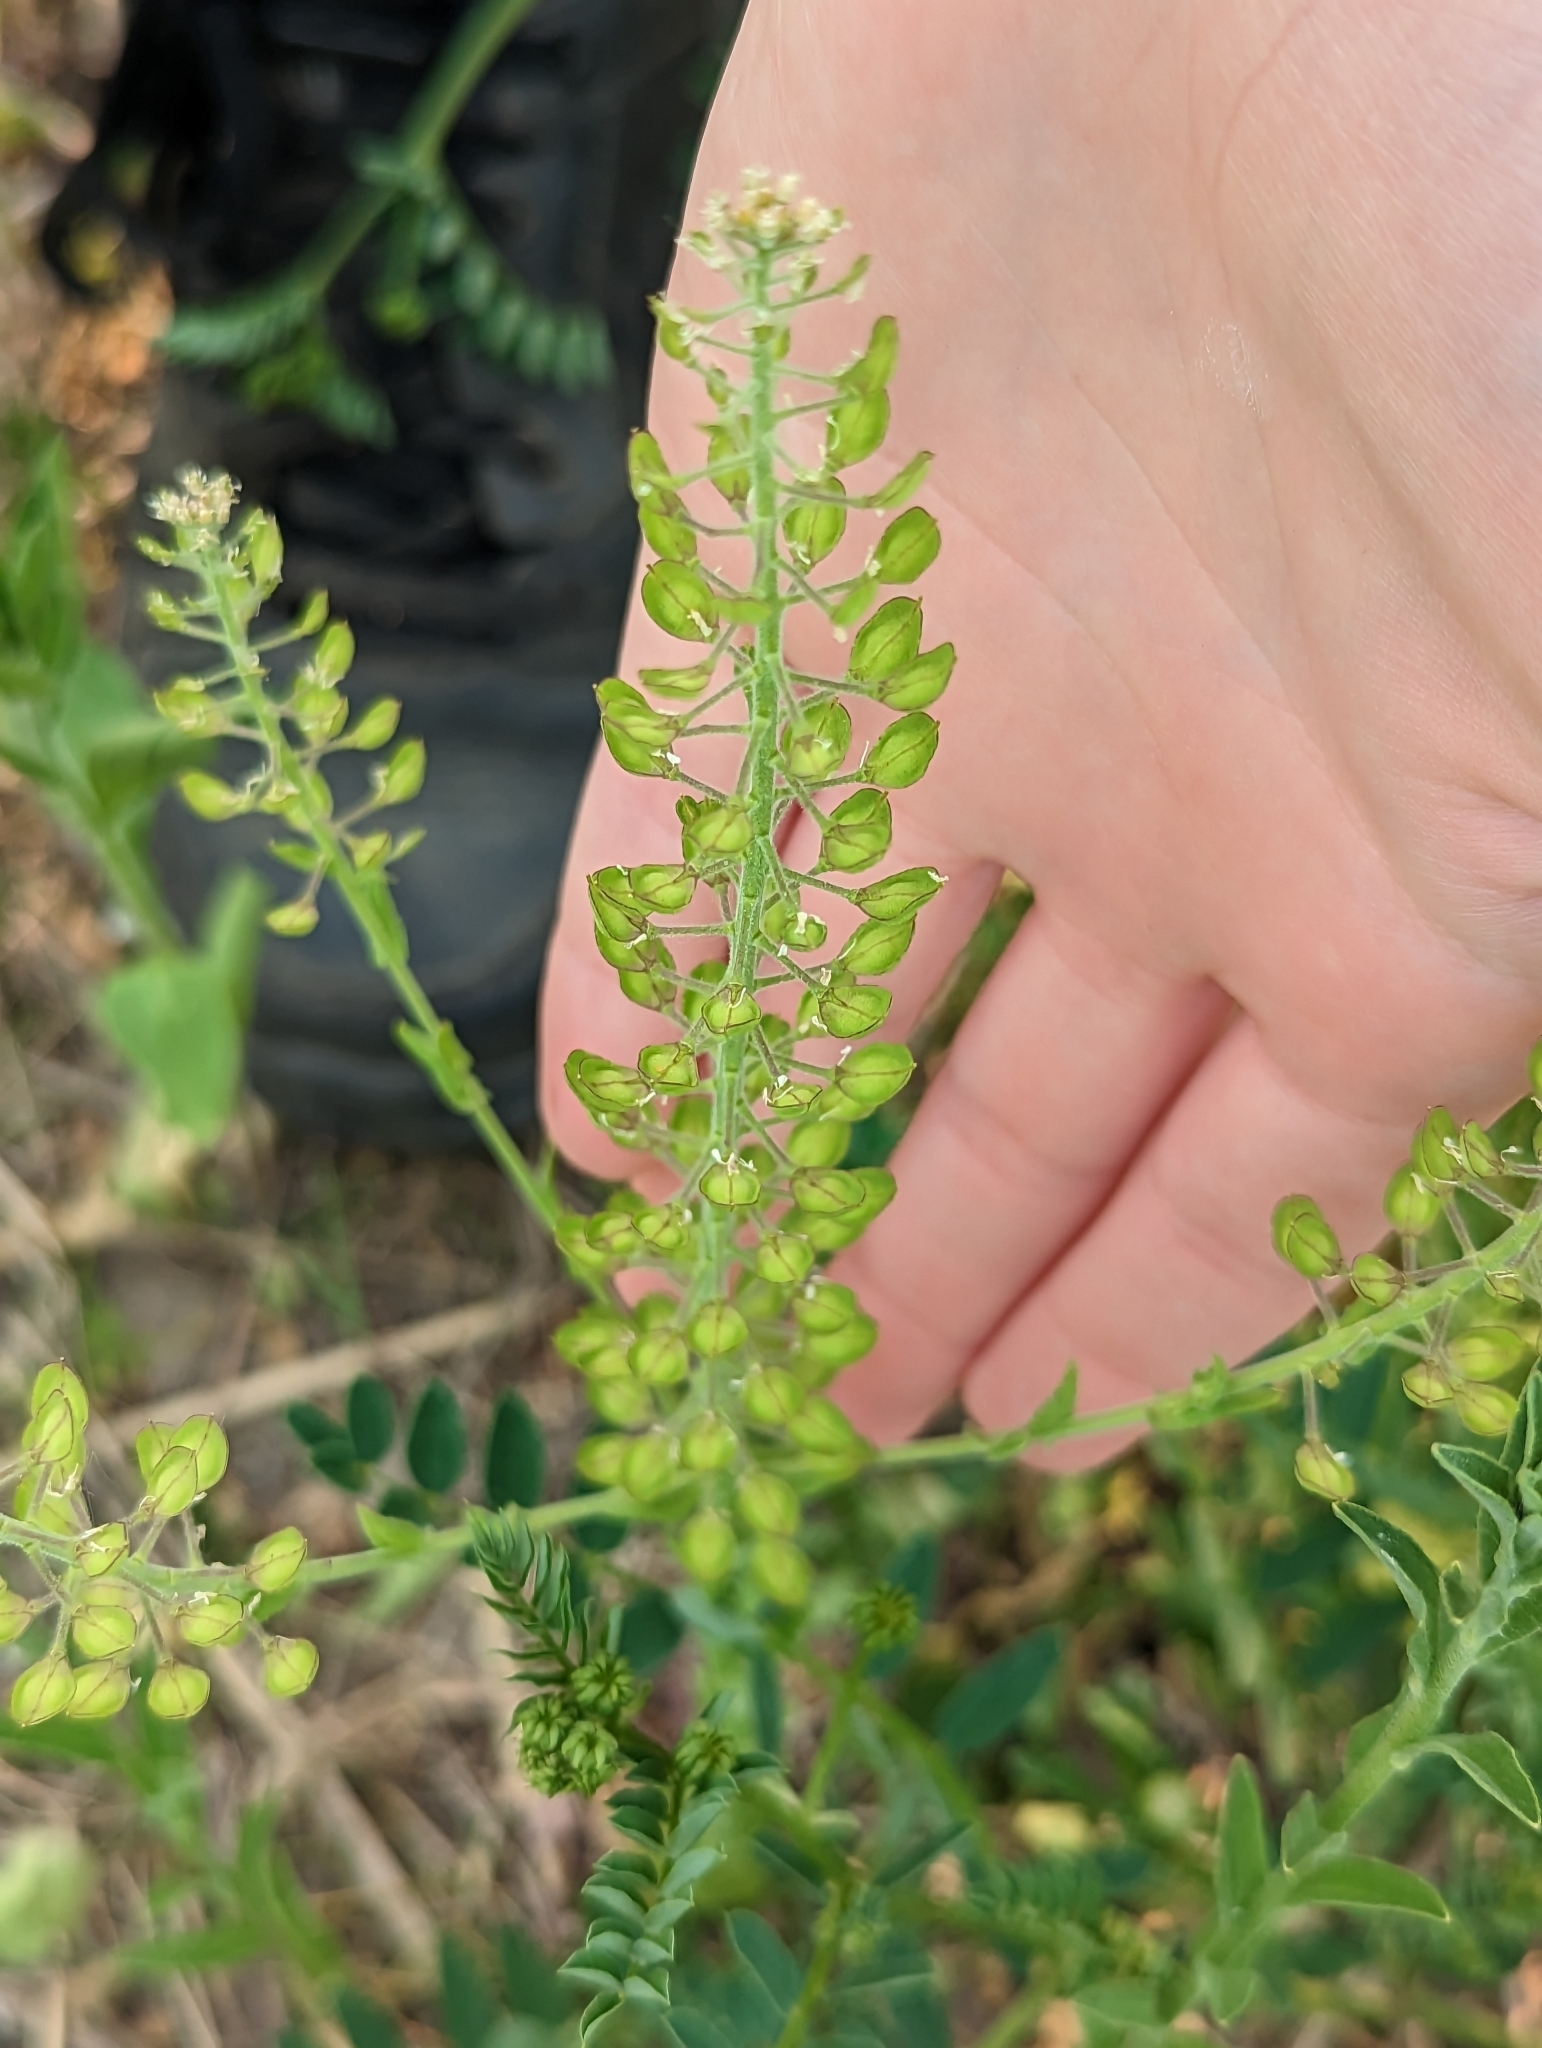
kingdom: Plantae
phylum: Tracheophyta
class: Magnoliopsida
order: Brassicales
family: Brassicaceae
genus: Lepidium
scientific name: Lepidium campestre
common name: Field pepperwort
